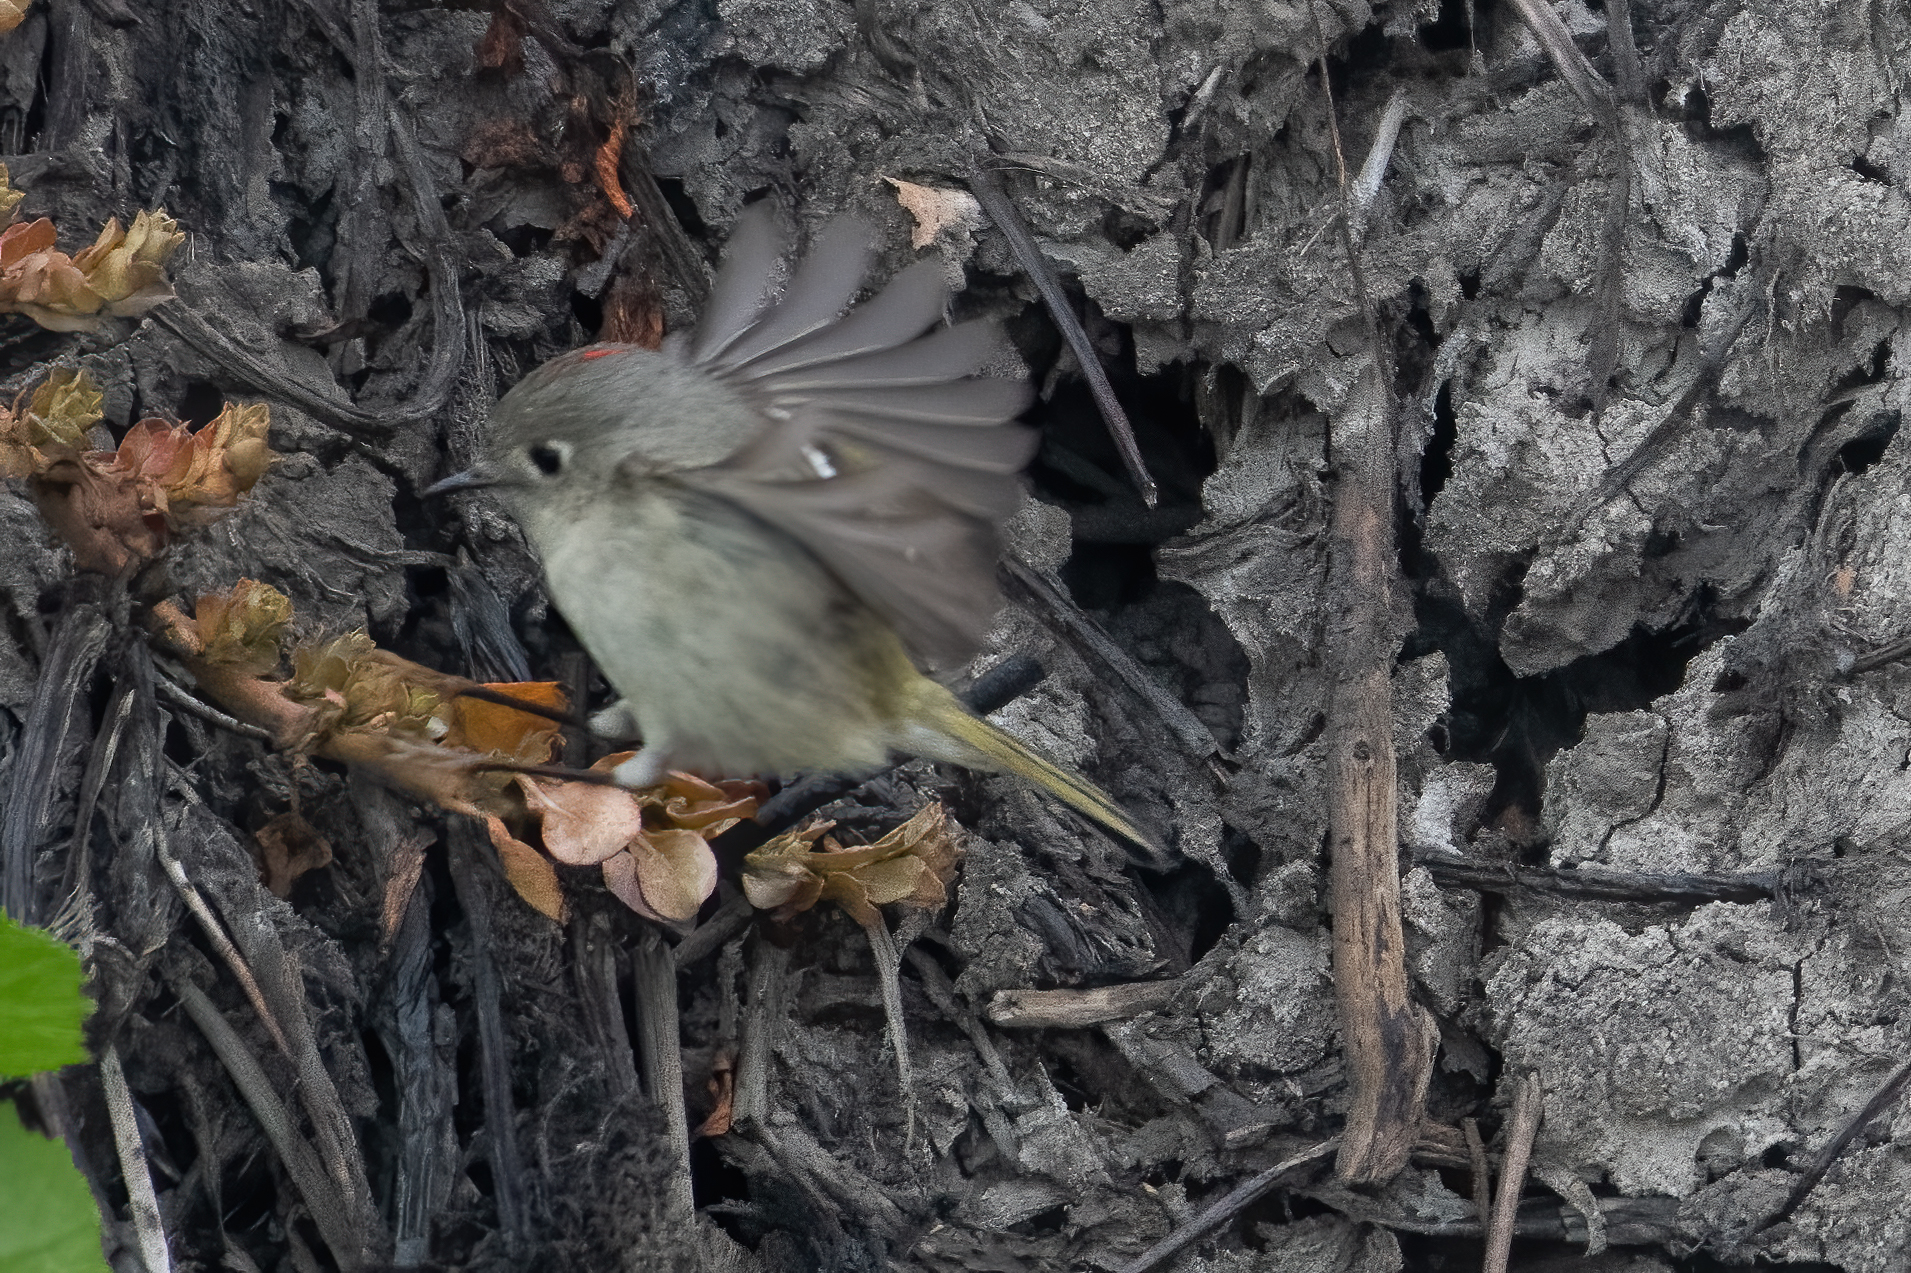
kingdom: Animalia
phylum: Chordata
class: Aves
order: Passeriformes
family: Regulidae
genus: Regulus
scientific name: Regulus calendula
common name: Ruby-crowned kinglet
